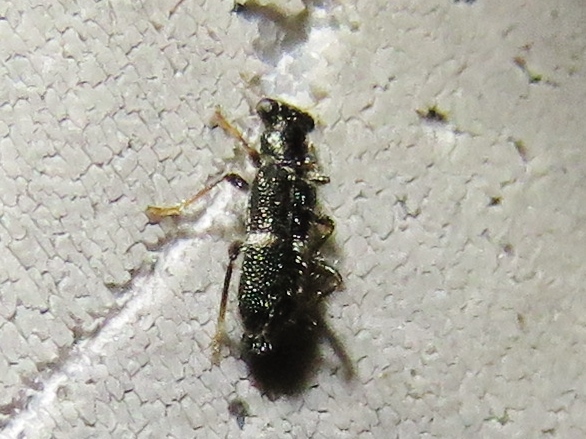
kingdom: Animalia
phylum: Arthropoda
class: Insecta
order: Coleoptera
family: Cleridae
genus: Phyllobaenus
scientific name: Phyllobaenus unifasciatus
